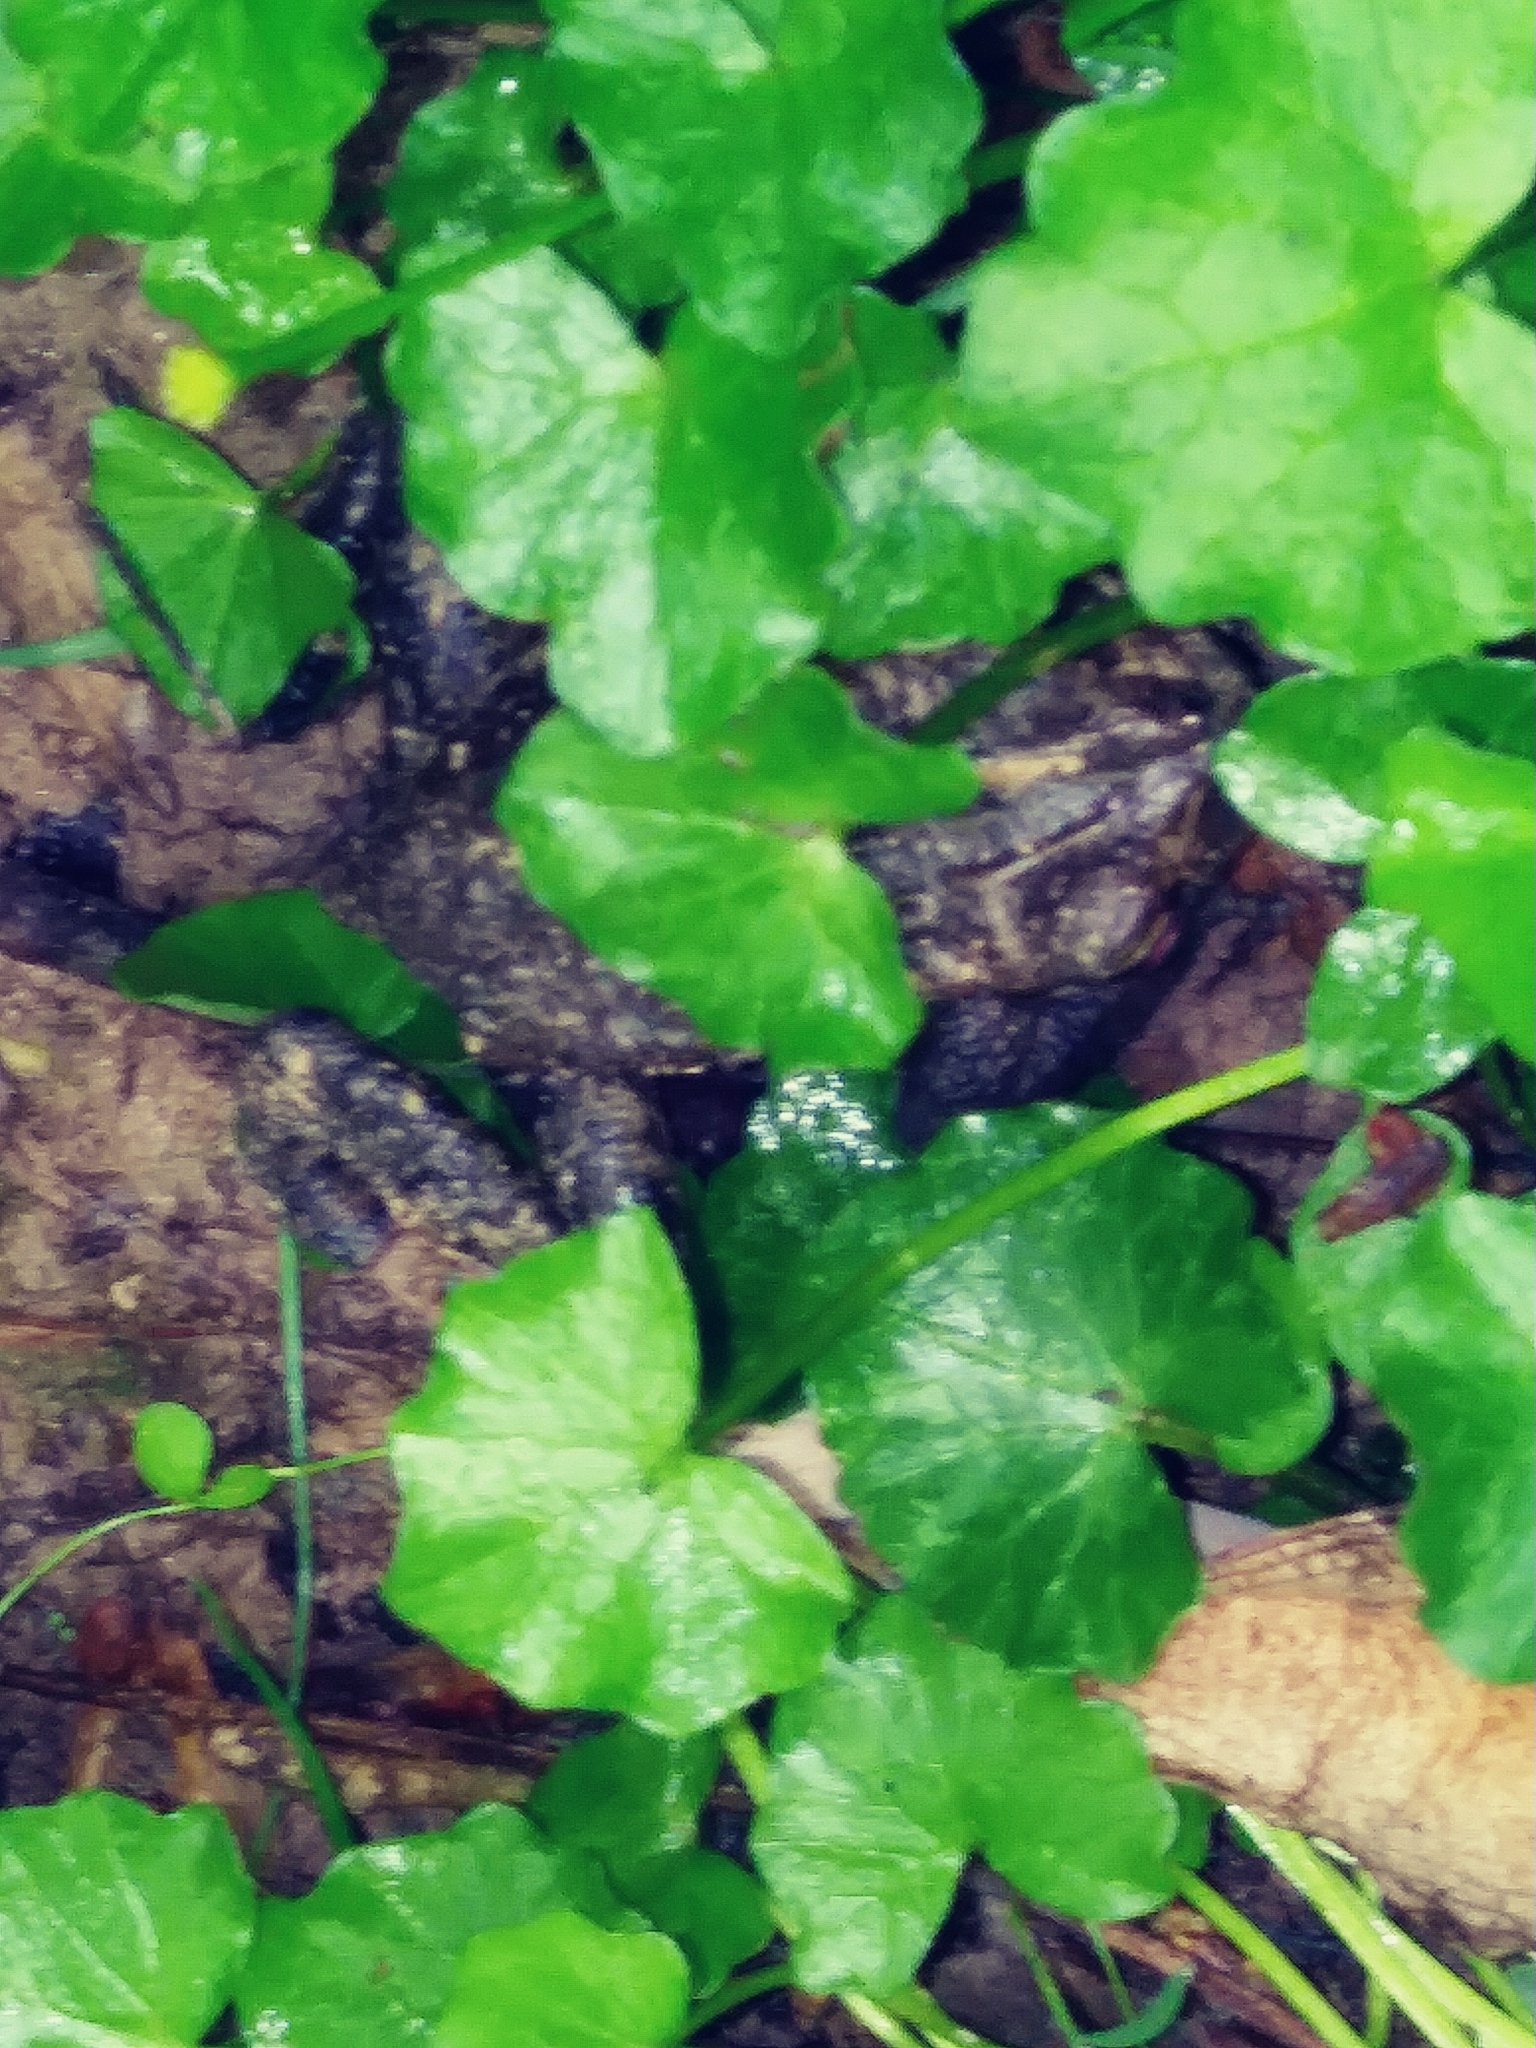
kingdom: Plantae
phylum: Tracheophyta
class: Magnoliopsida
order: Ranunculales
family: Ranunculaceae
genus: Ficaria
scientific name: Ficaria verna
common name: Lesser celandine
